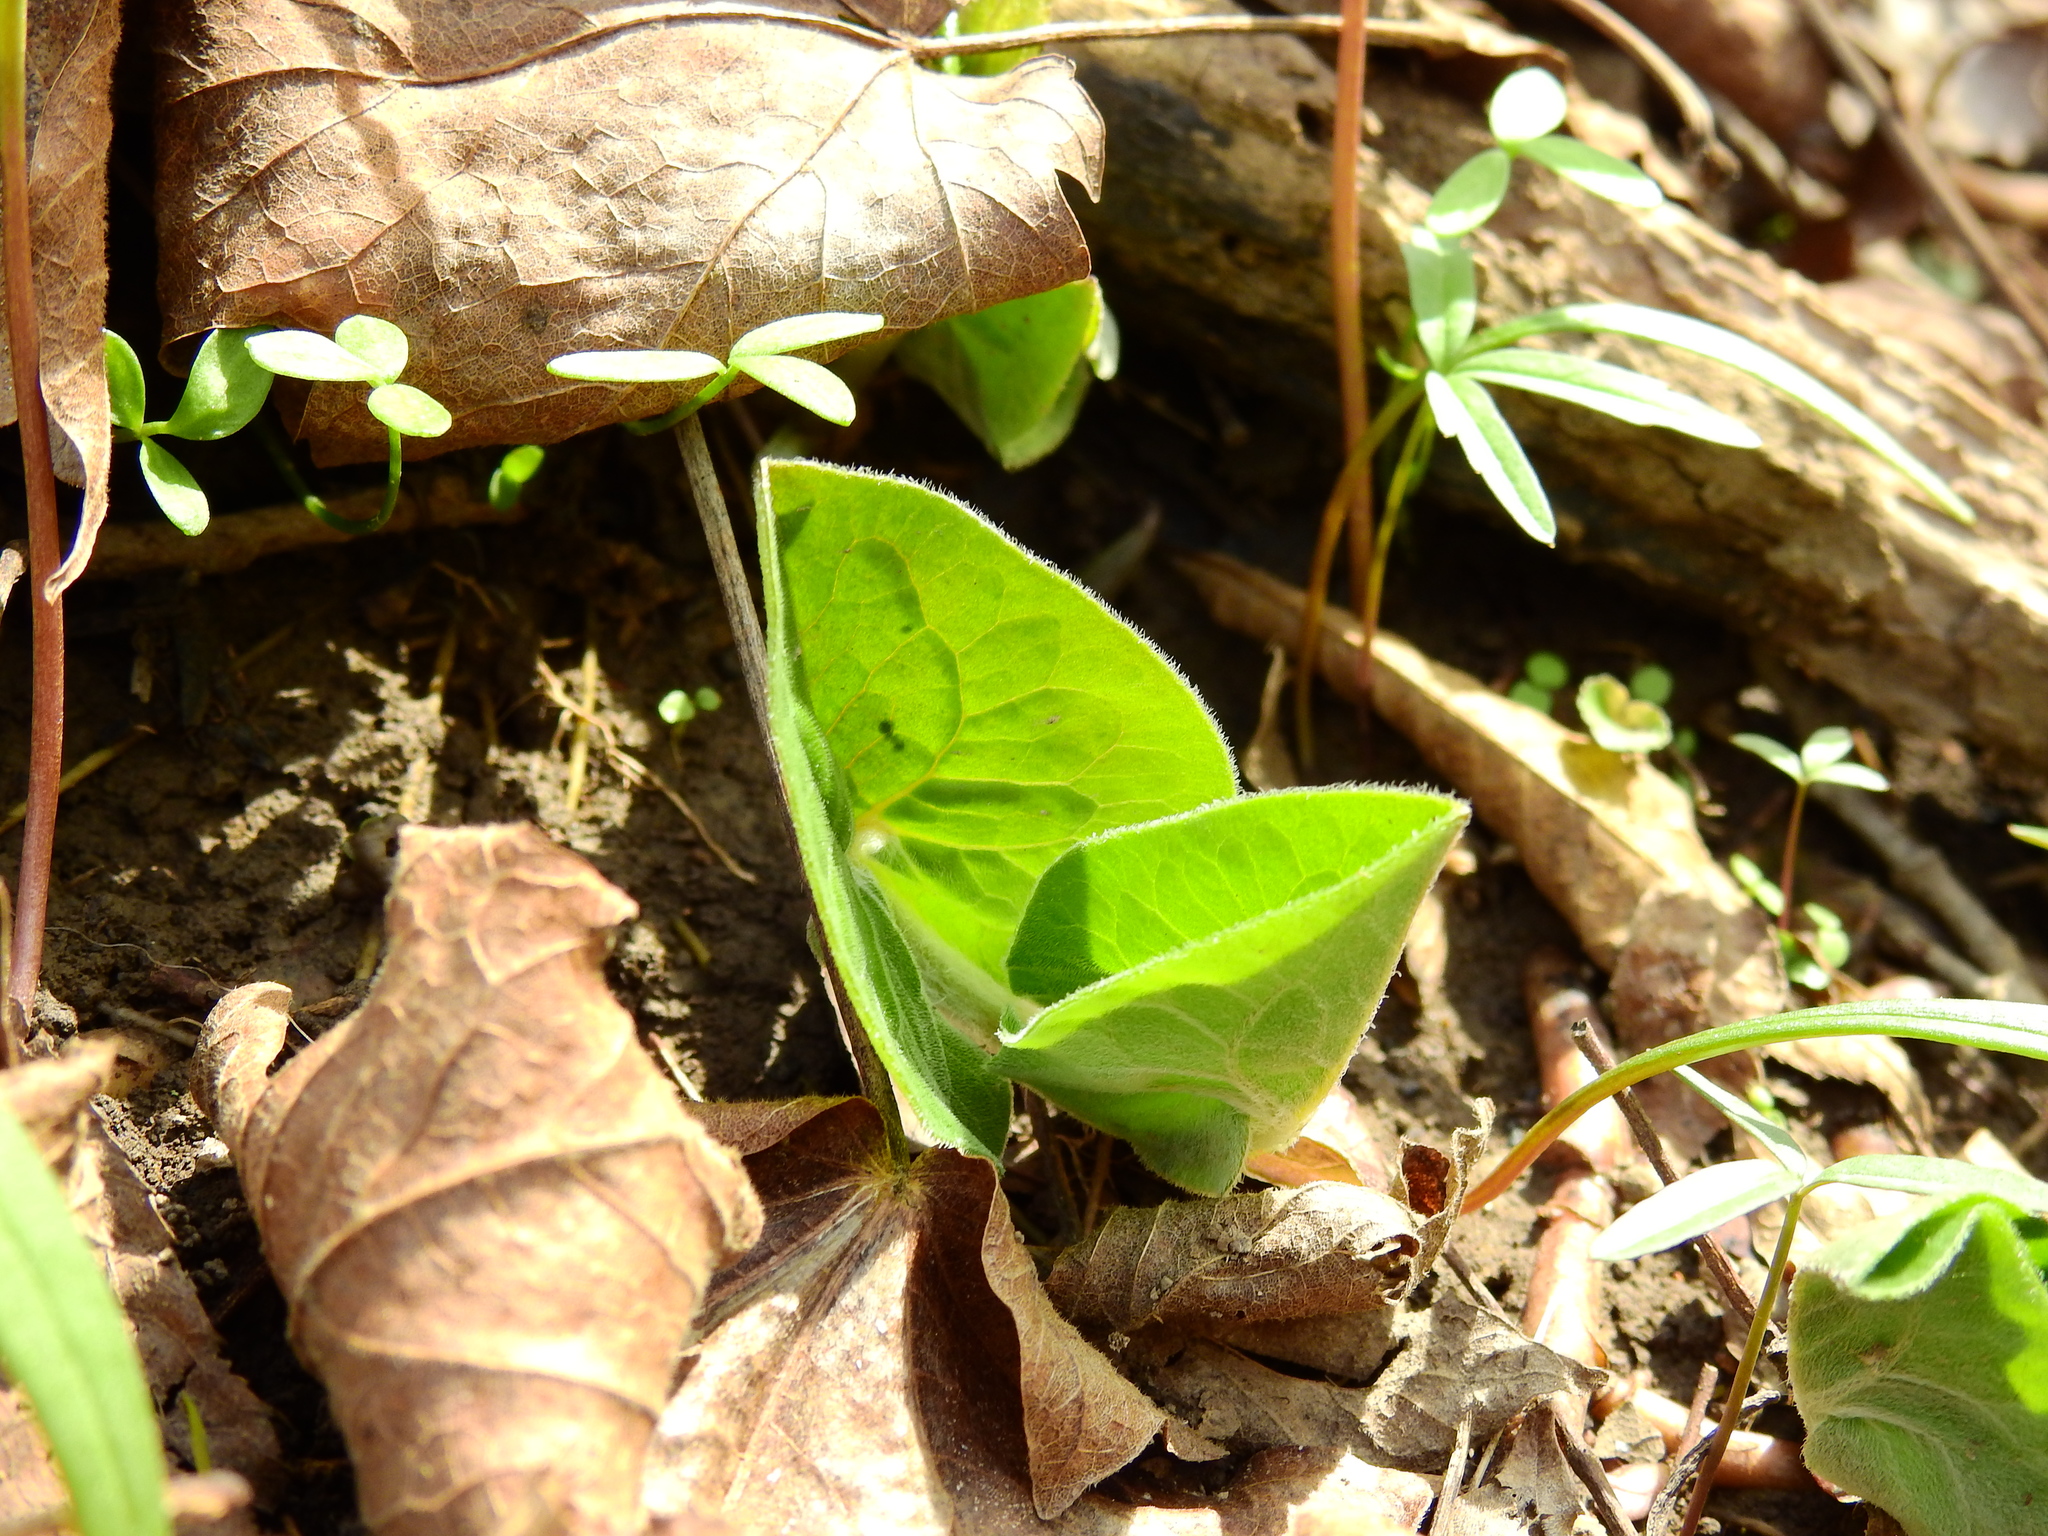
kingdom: Plantae
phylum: Tracheophyta
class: Magnoliopsida
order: Piperales
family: Aristolochiaceae
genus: Asarum
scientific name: Asarum canadense
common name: Wild ginger
